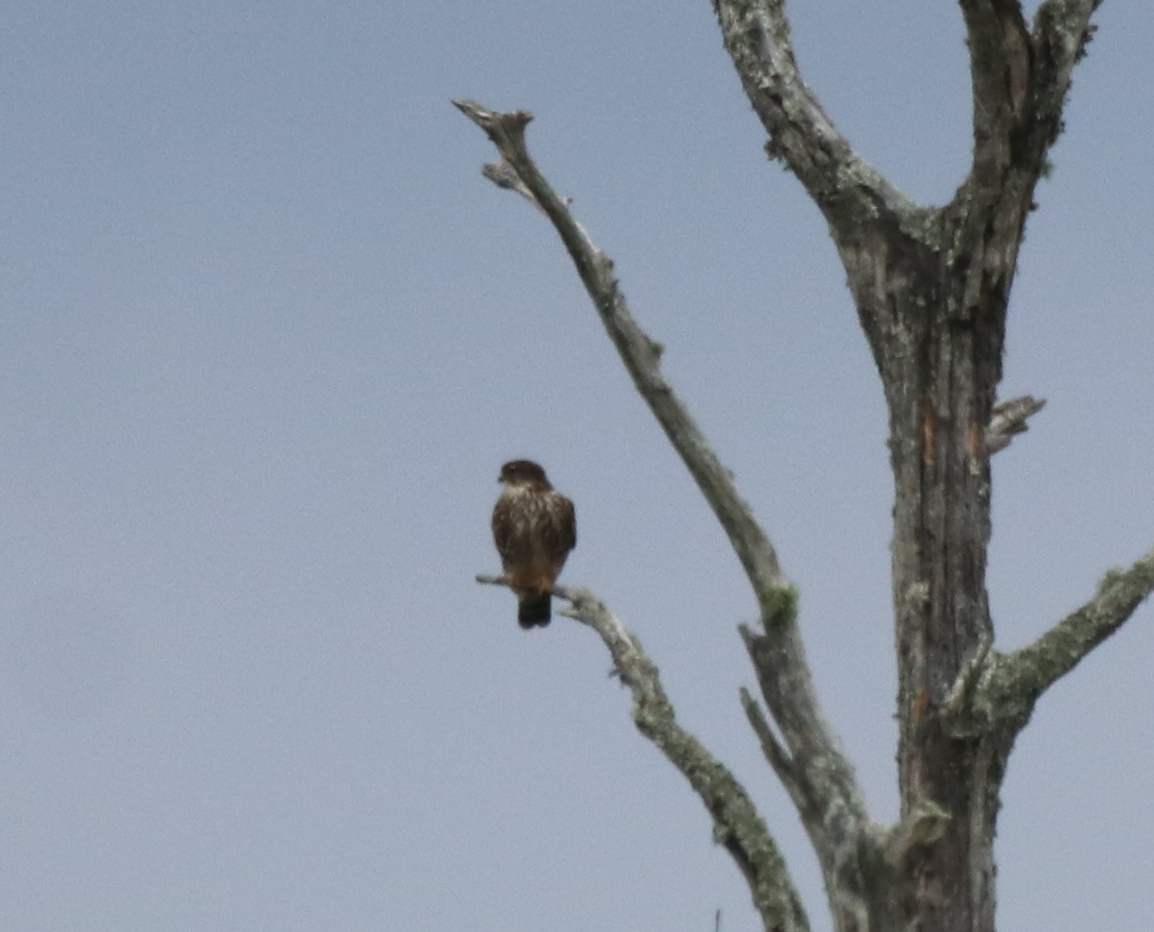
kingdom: Animalia
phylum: Chordata
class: Aves
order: Falconiformes
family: Falconidae
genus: Falco
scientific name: Falco columbarius
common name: Merlin
